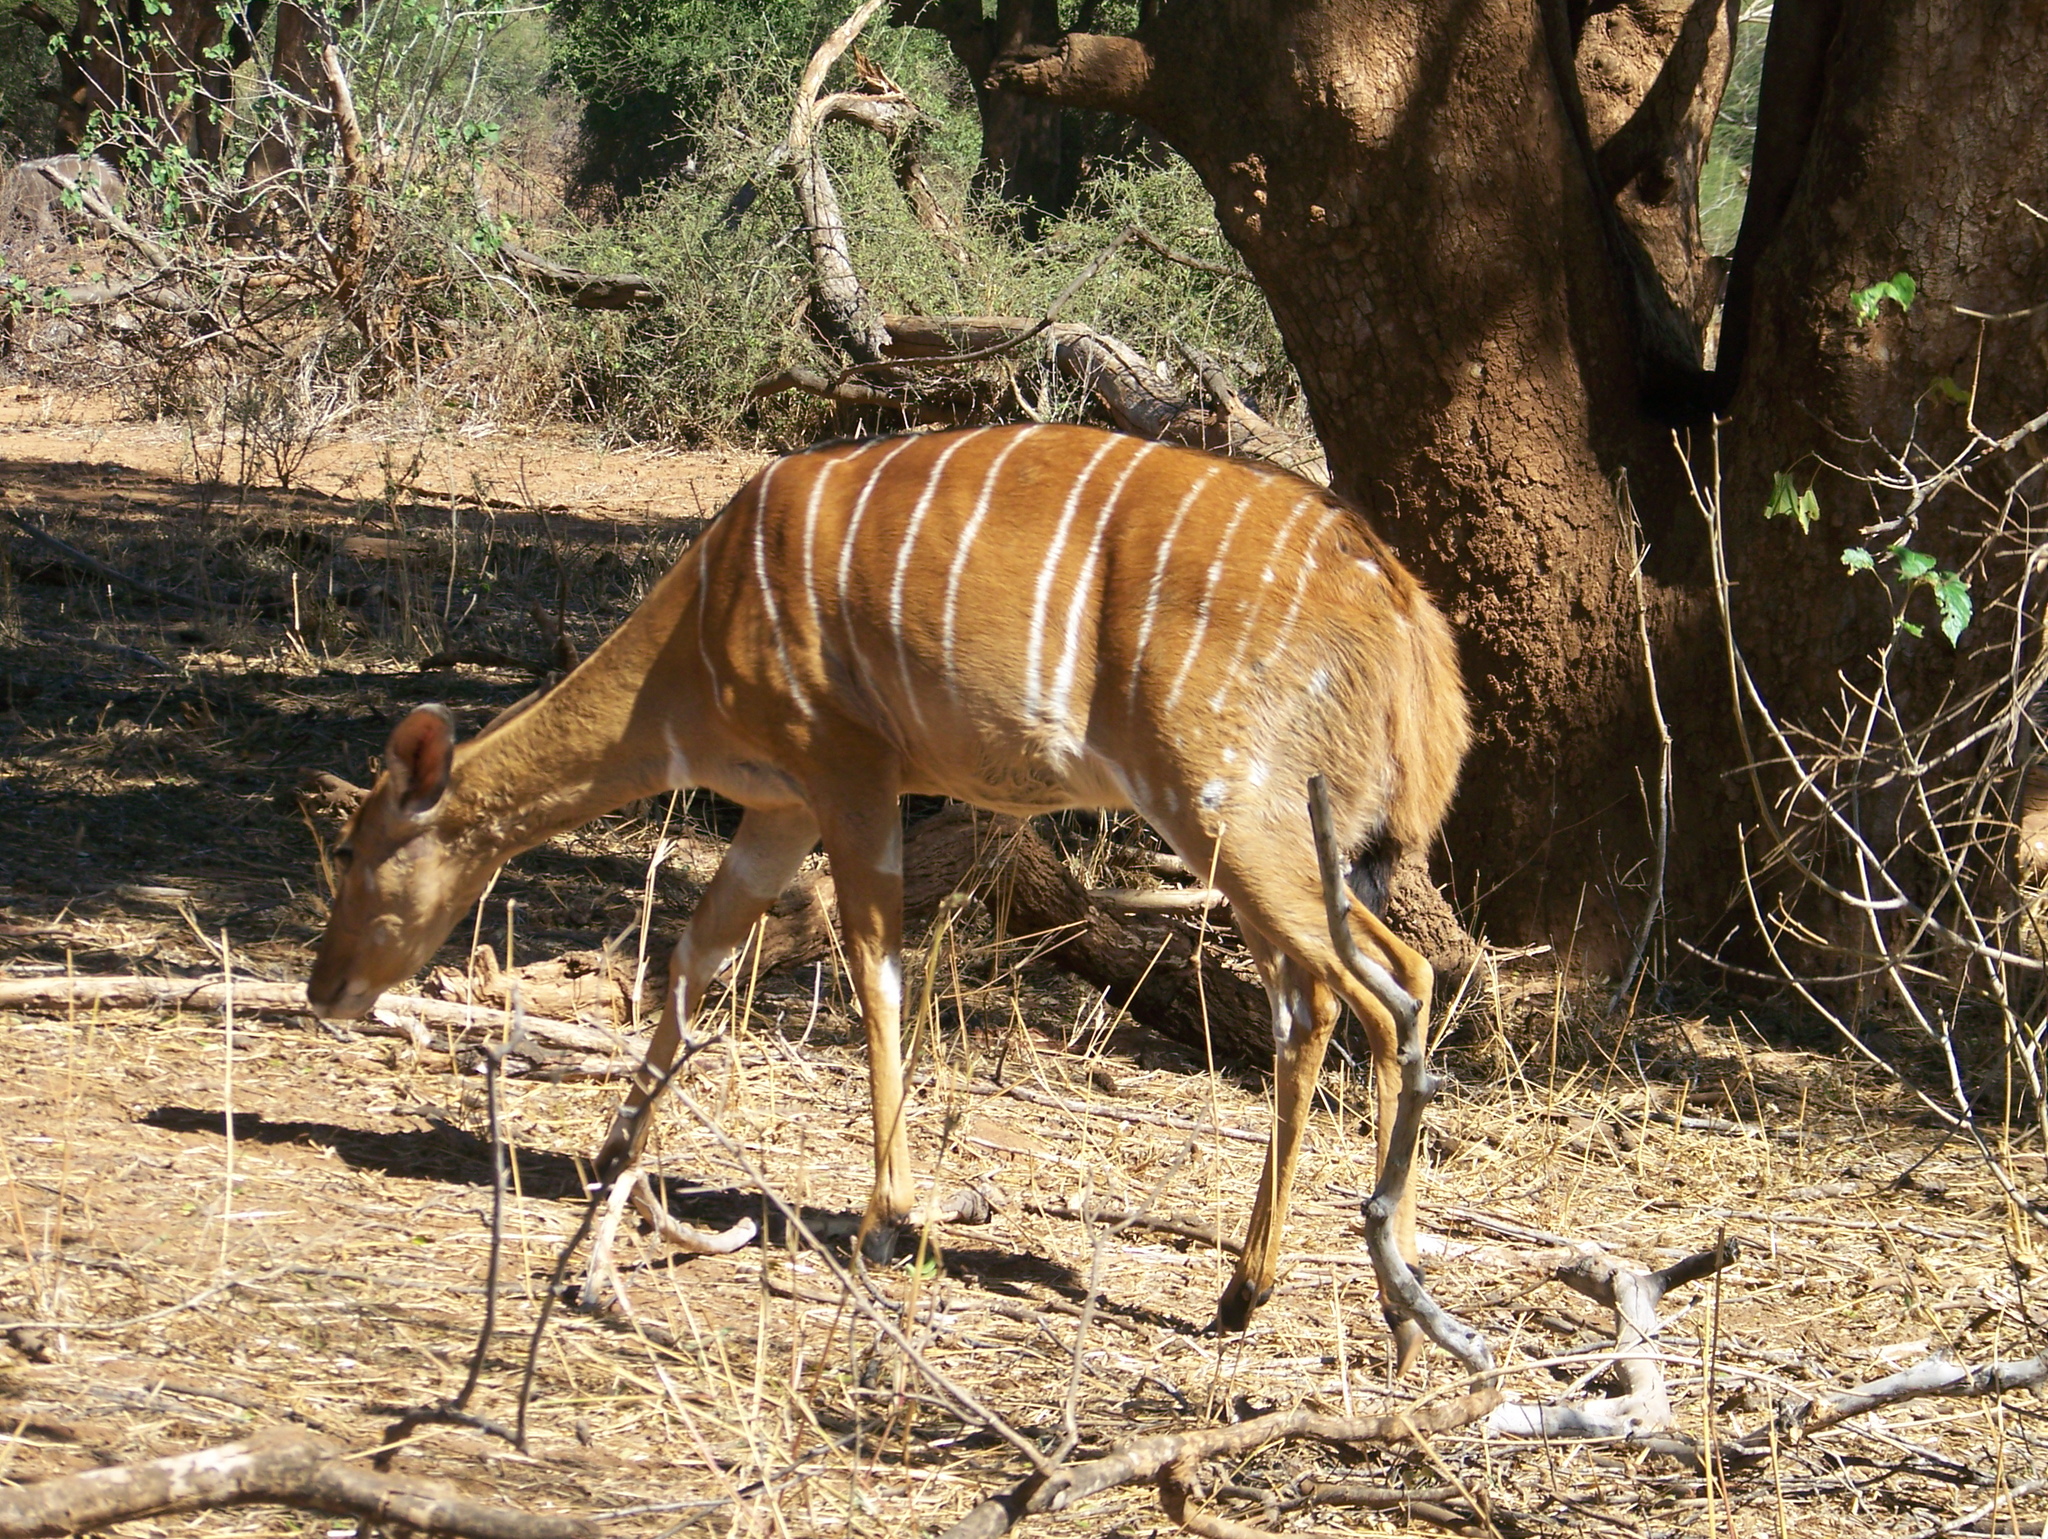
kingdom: Animalia
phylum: Chordata
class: Mammalia
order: Artiodactyla
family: Bovidae
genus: Tragelaphus
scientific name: Tragelaphus angasii
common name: Nyala
